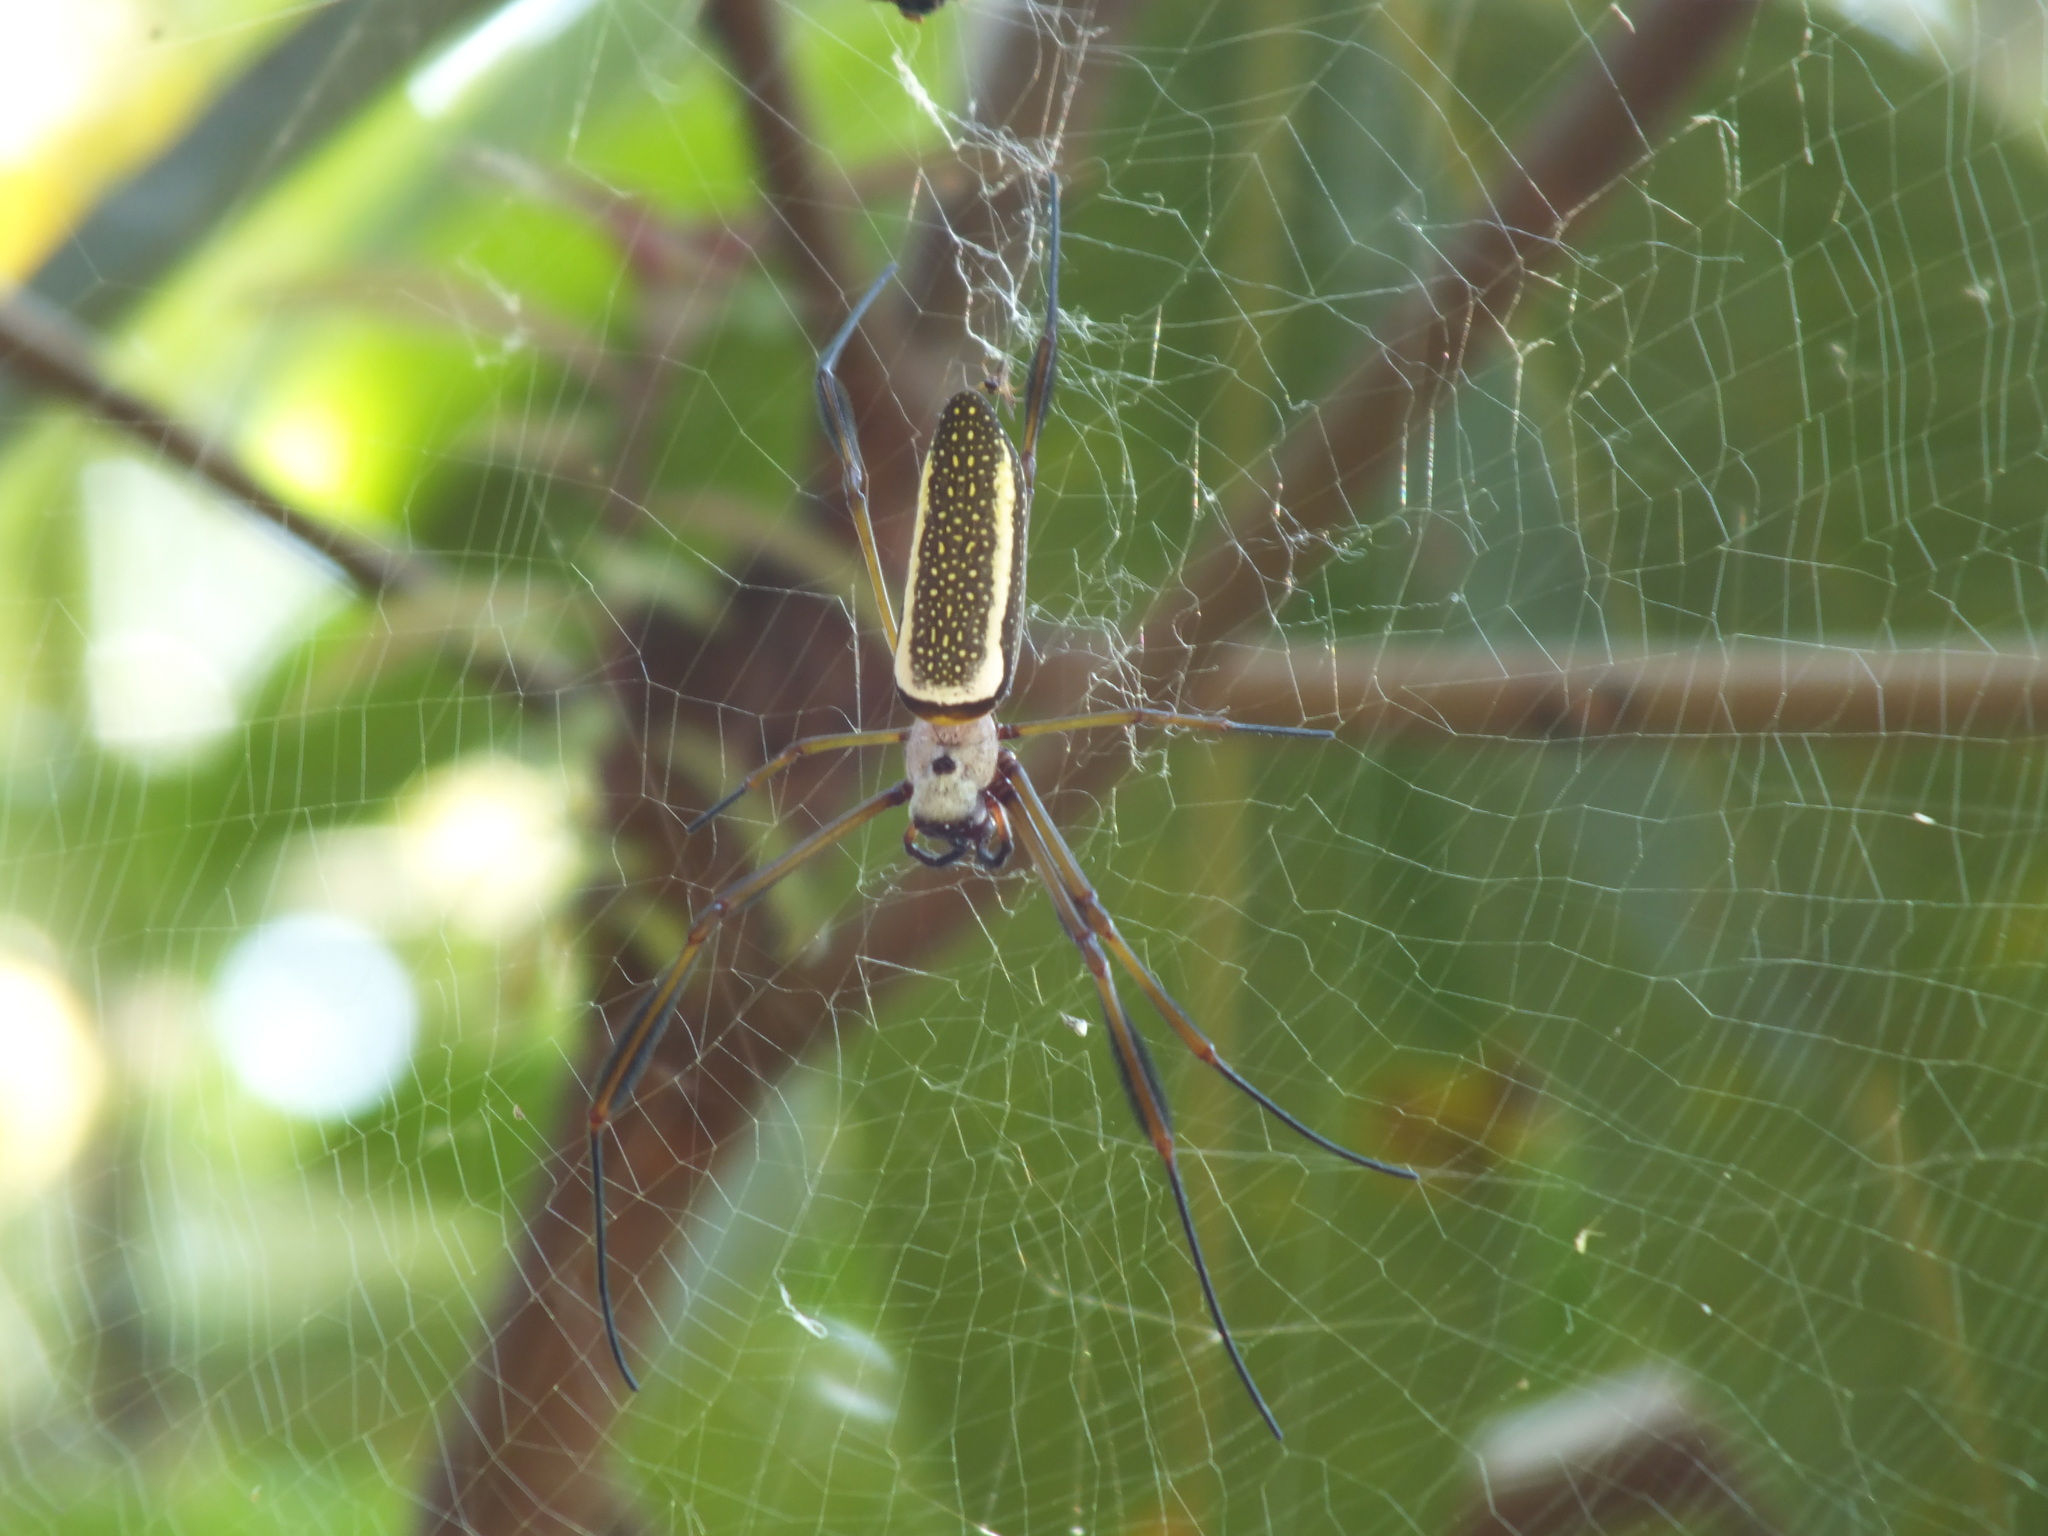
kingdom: Animalia
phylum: Arthropoda
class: Arachnida
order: Araneae
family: Araneidae
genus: Trichonephila
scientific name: Trichonephila clavipes
